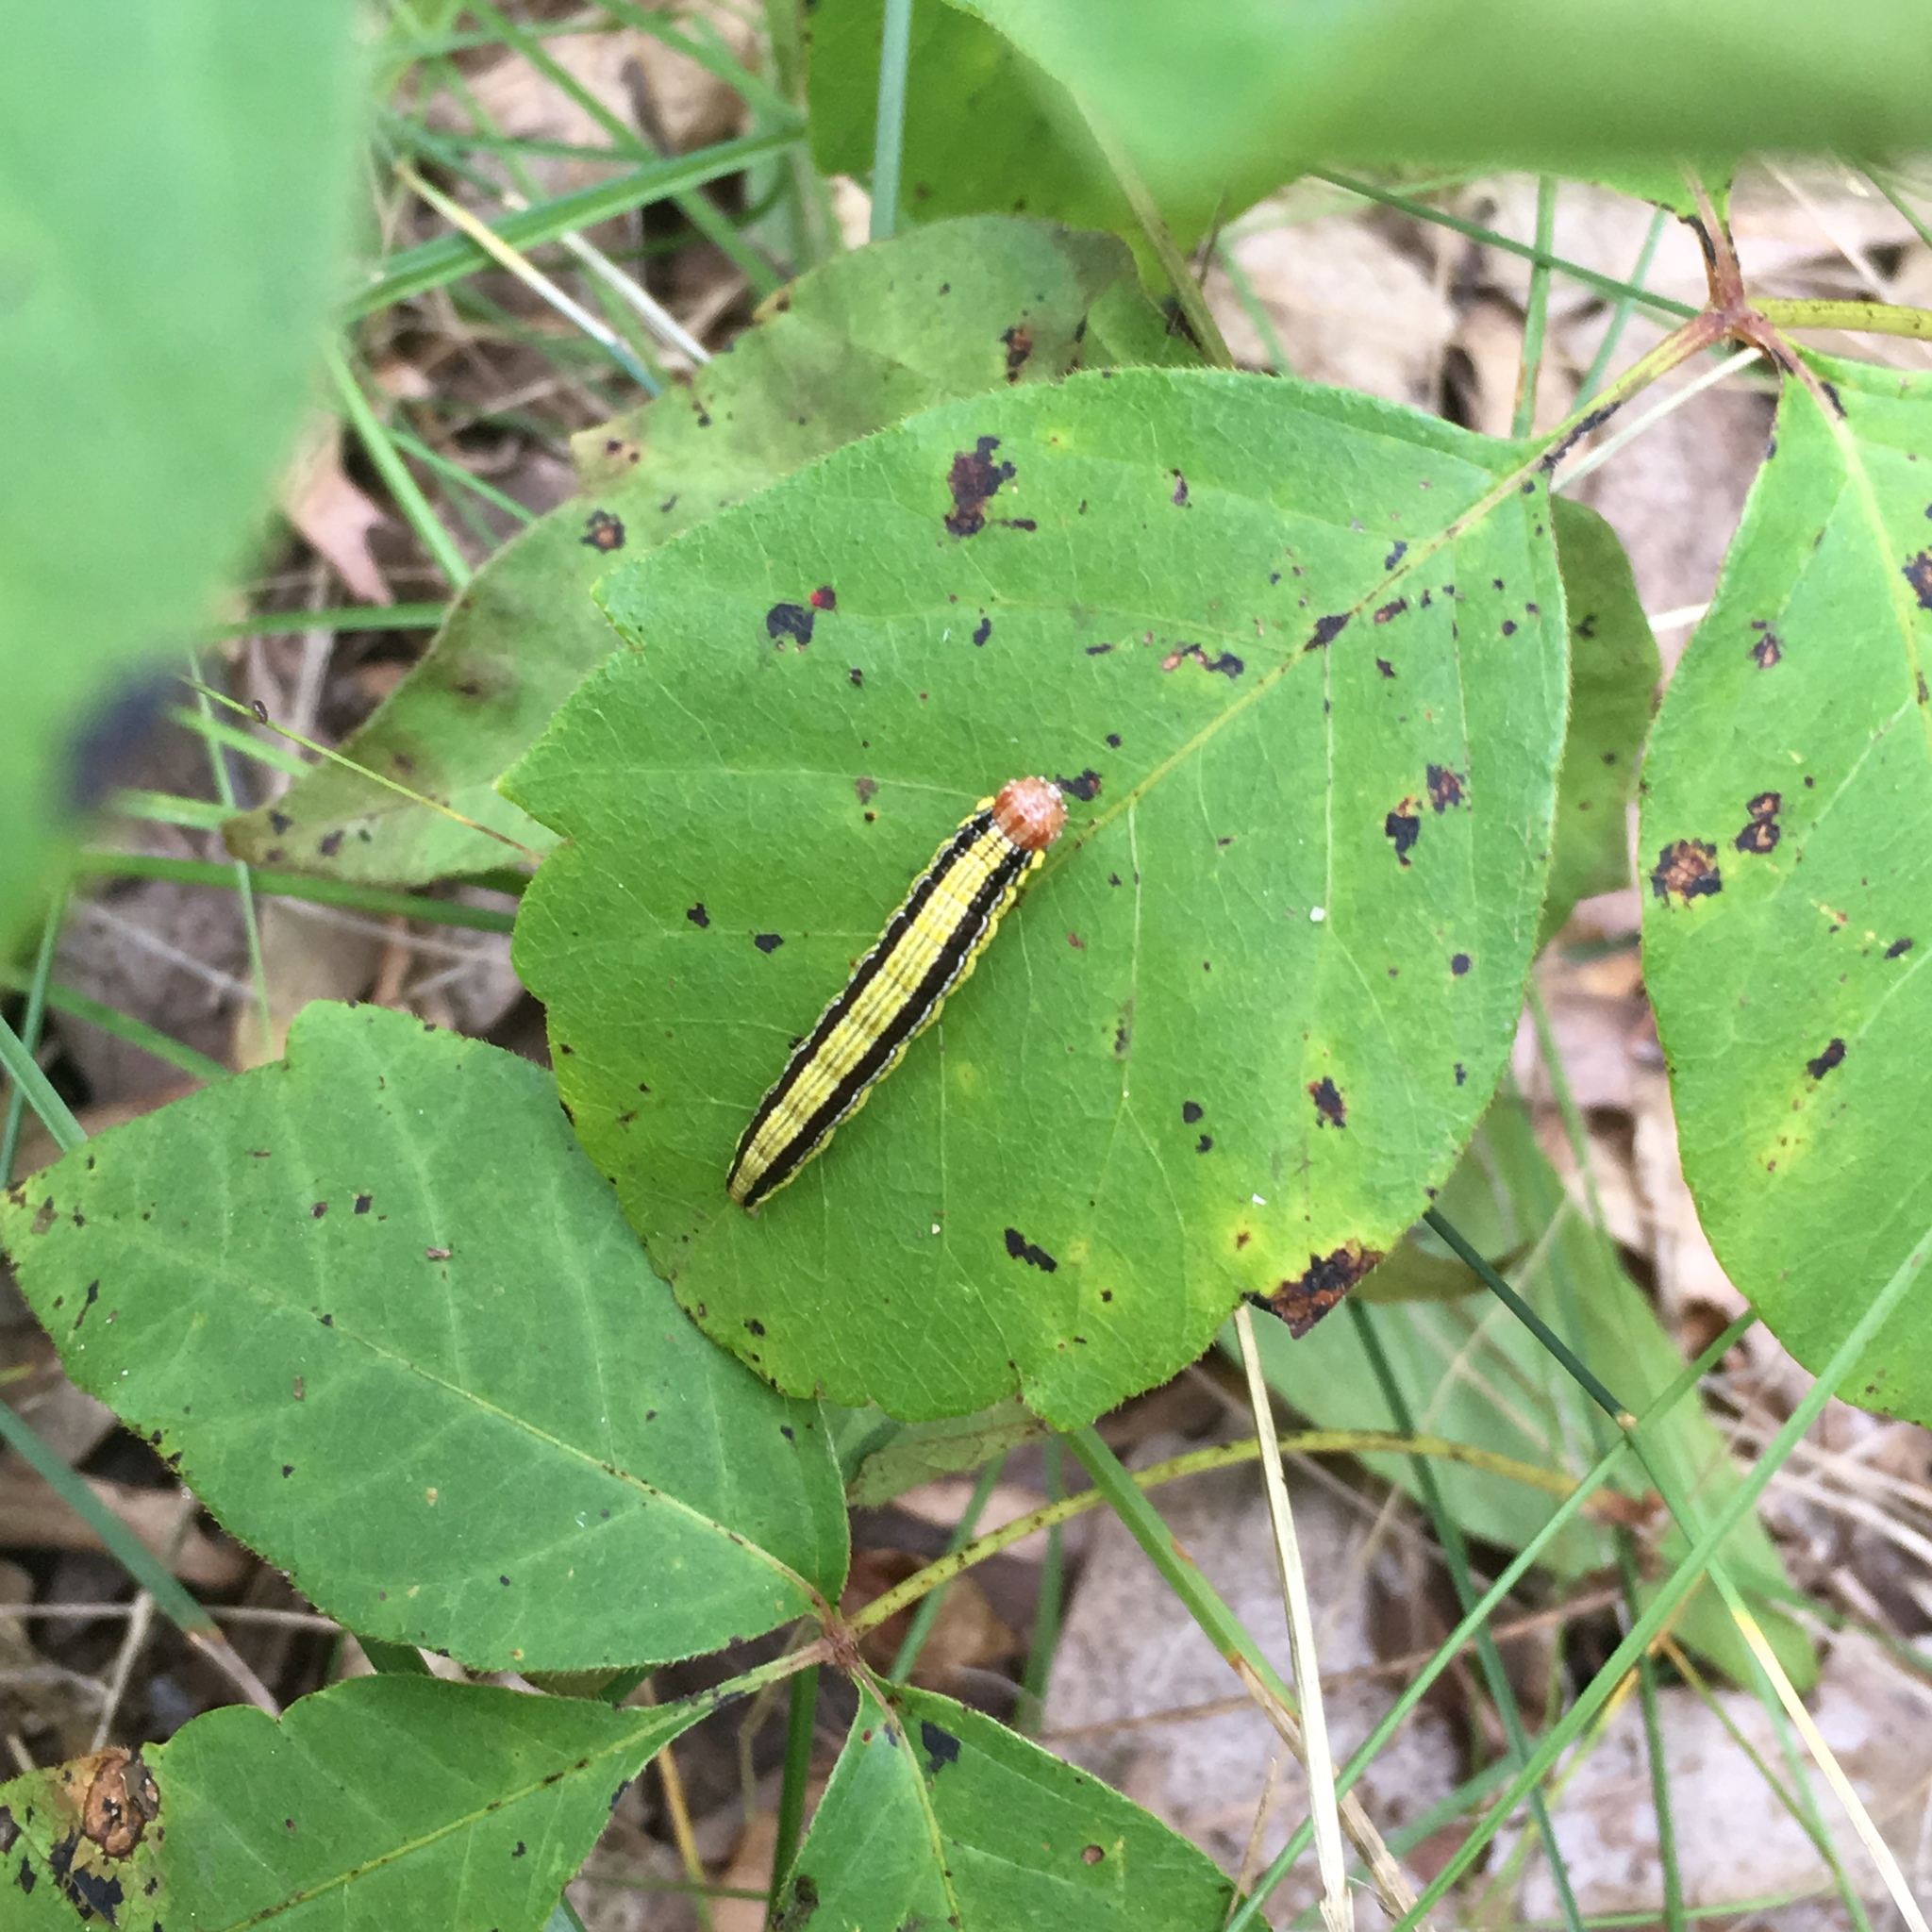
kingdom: Animalia
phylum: Arthropoda
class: Insecta
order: Lepidoptera
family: Pyralidae
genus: Macalla
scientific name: Macalla zelleri
